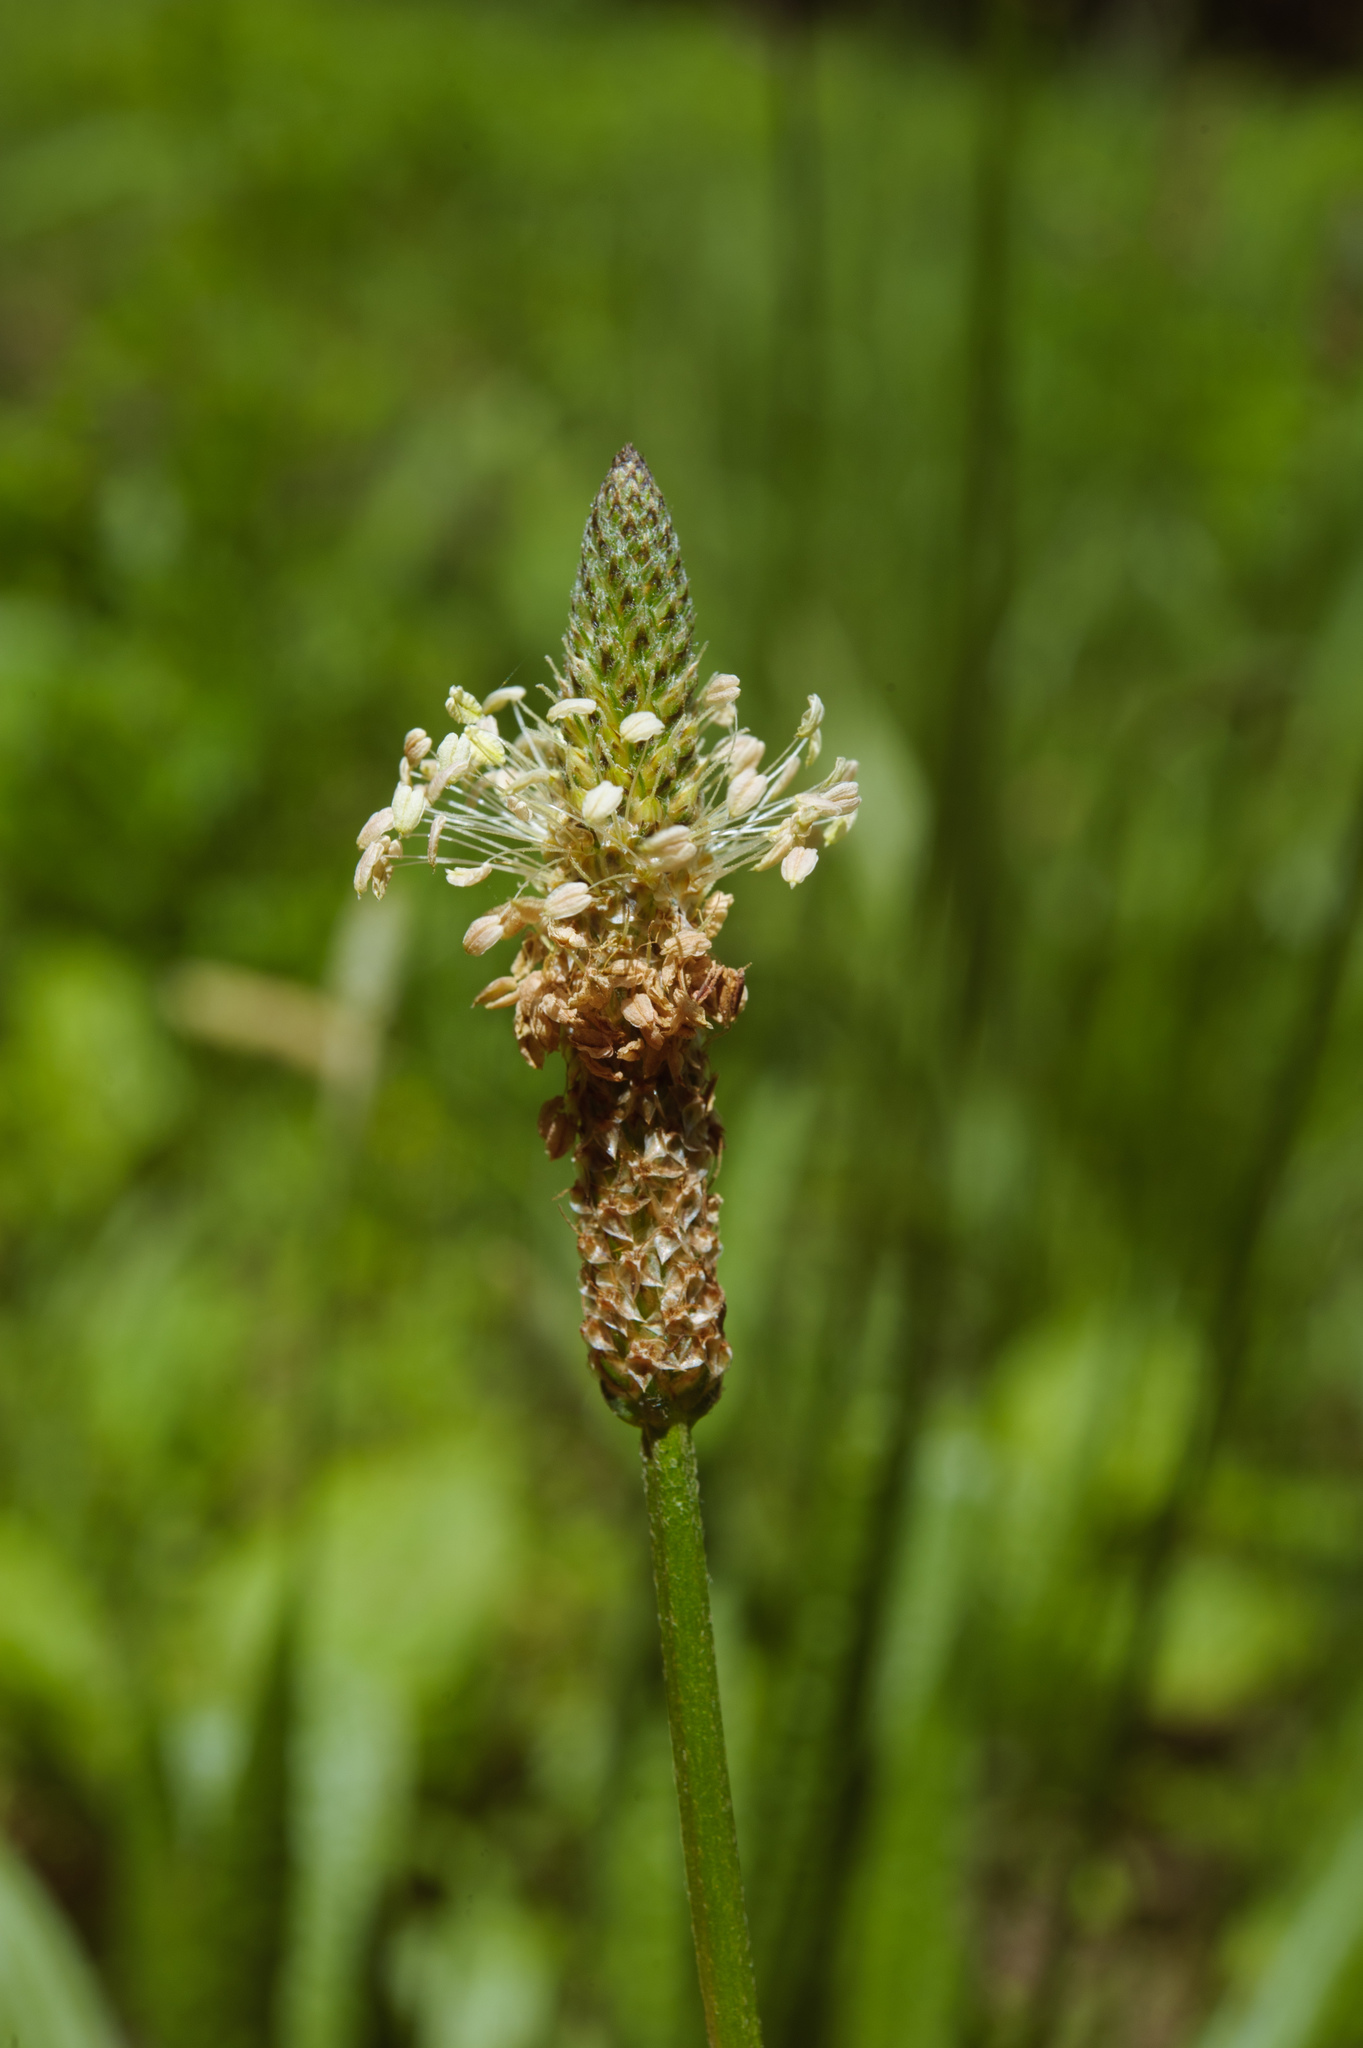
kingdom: Plantae
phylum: Tracheophyta
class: Magnoliopsida
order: Lamiales
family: Plantaginaceae
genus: Plantago
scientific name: Plantago lanceolata
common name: Ribwort plantain
